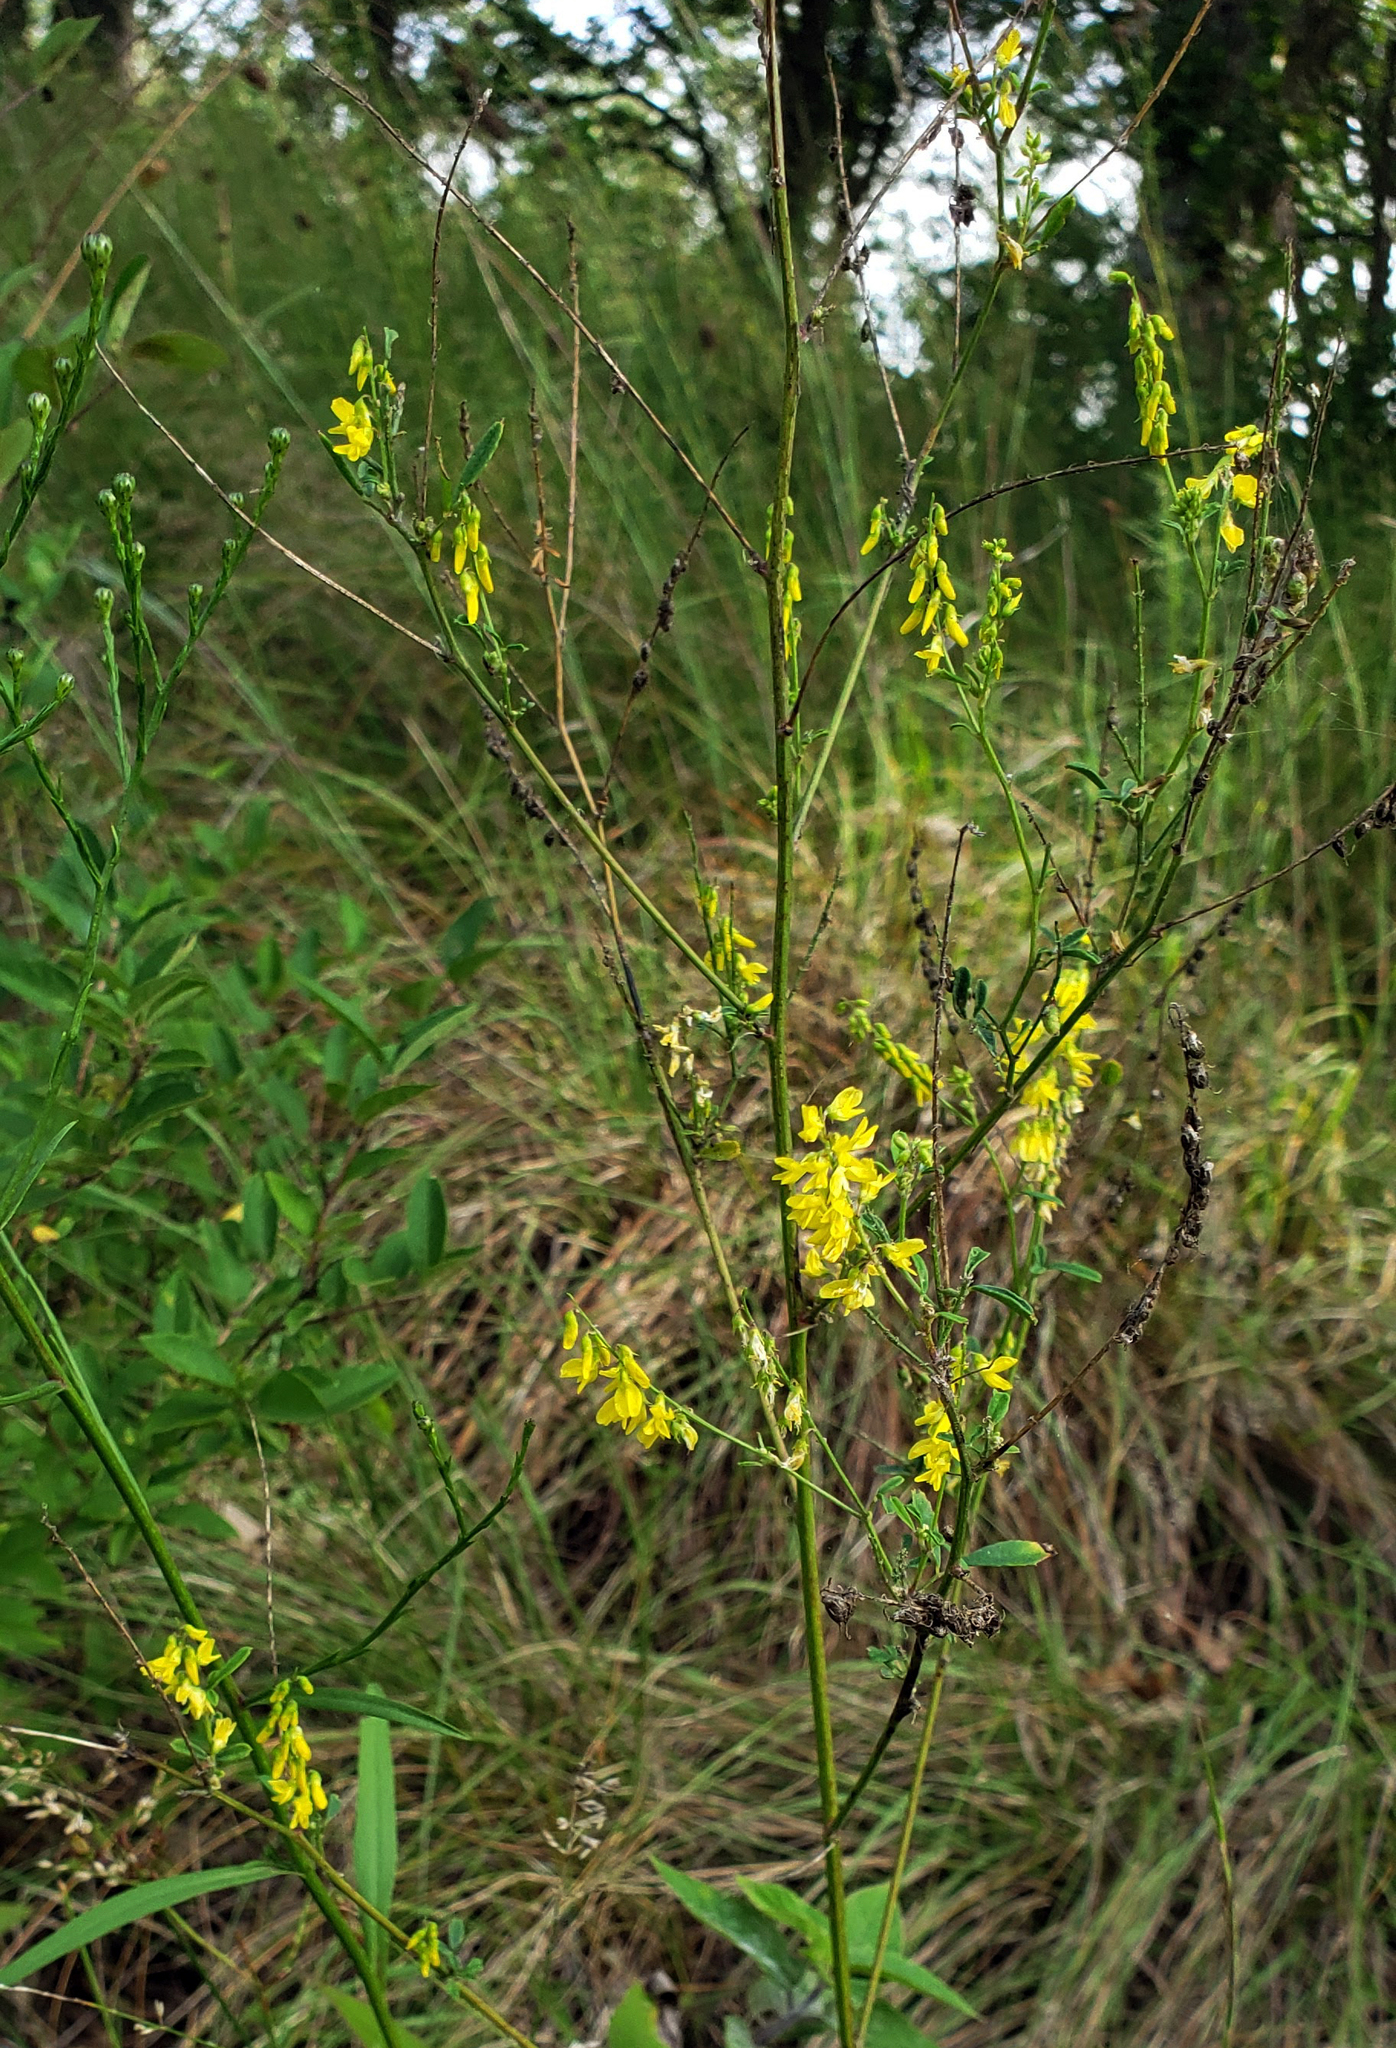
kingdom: Plantae
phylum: Tracheophyta
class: Magnoliopsida
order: Fabales
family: Fabaceae
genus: Melilotus
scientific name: Melilotus officinalis
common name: Sweetclover
